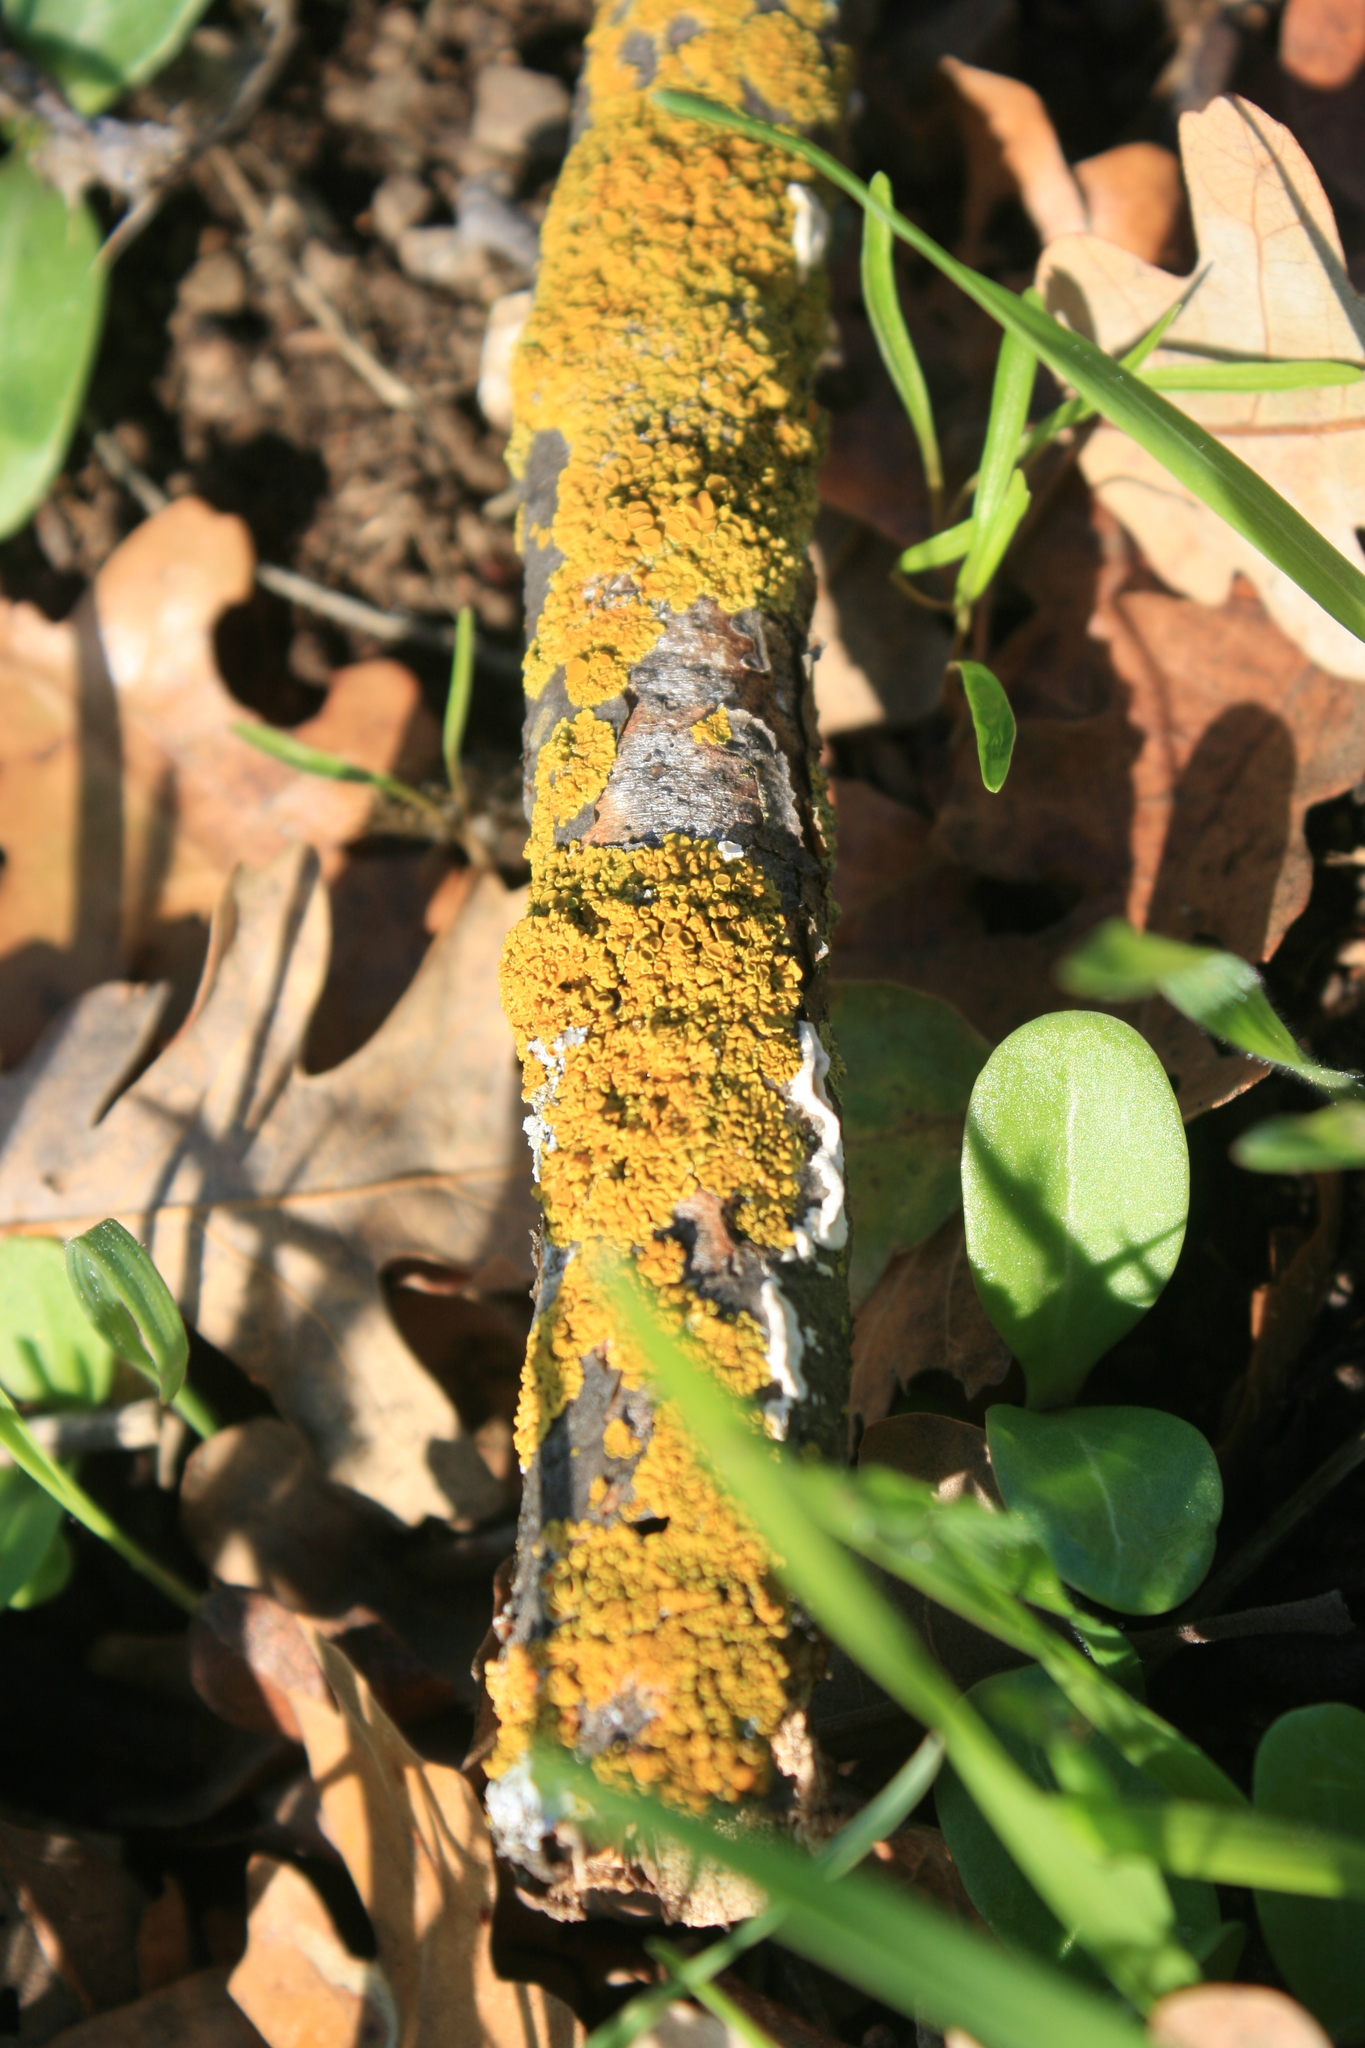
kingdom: Fungi
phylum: Ascomycota
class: Lecanoromycetes
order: Teloschistales
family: Teloschistaceae
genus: Xanthoria
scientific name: Xanthoria parietina
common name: Common orange lichen
